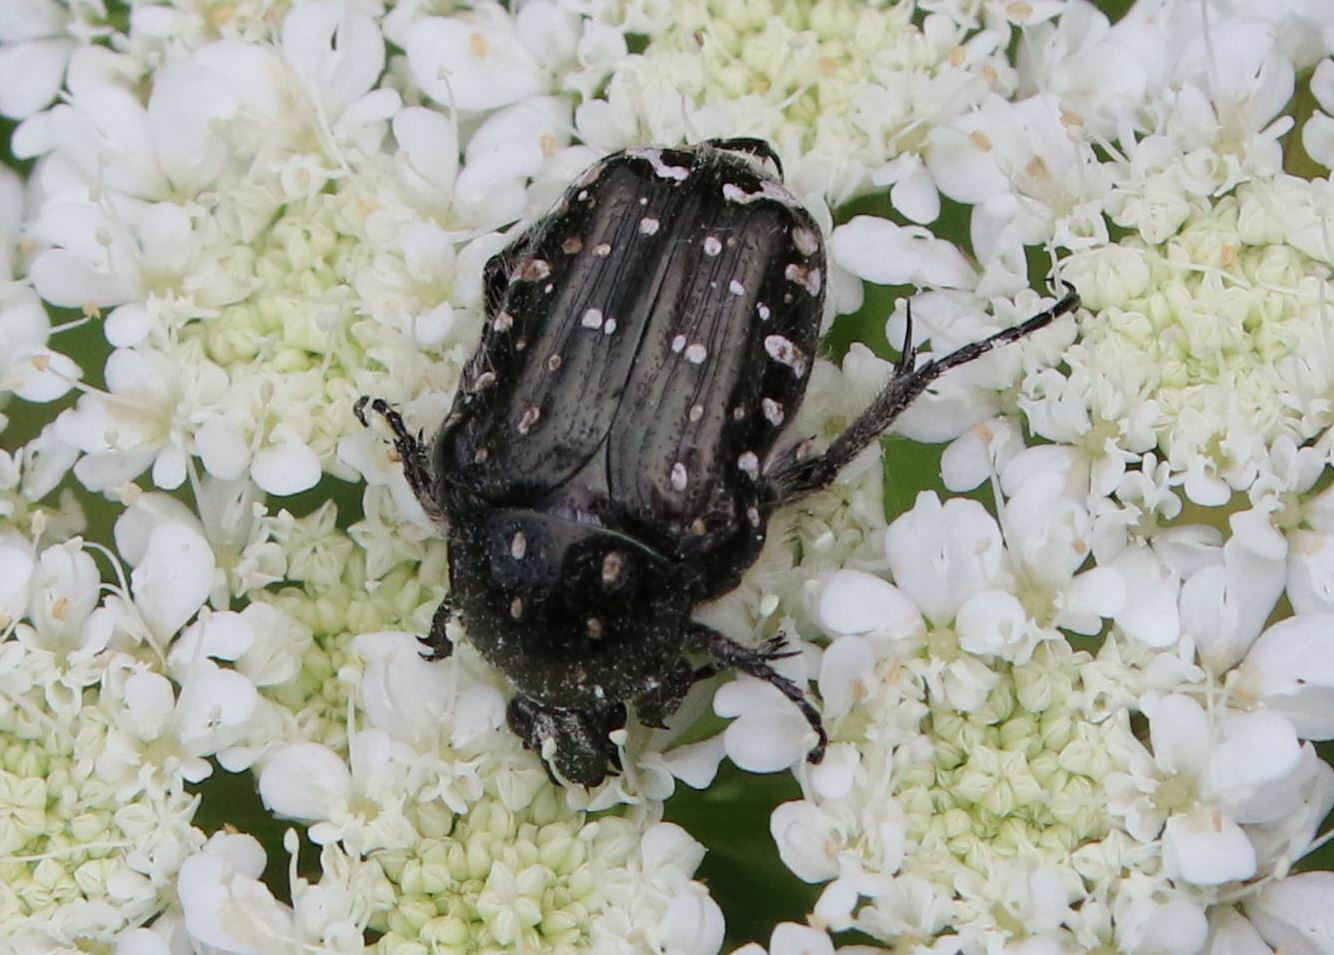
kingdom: Animalia
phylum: Arthropoda
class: Insecta
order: Coleoptera
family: Scarabaeidae
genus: Oxythyrea
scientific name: Oxythyrea funesta
